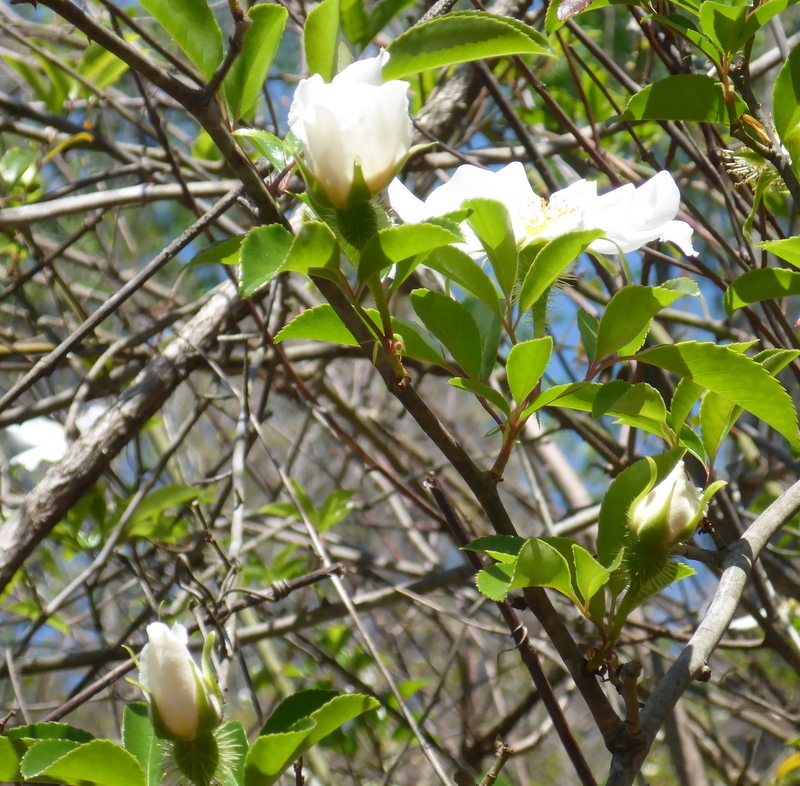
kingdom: Plantae
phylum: Tracheophyta
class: Magnoliopsida
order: Rosales
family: Rosaceae
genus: Rosa
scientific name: Rosa laevigata
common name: Cherokee rose
